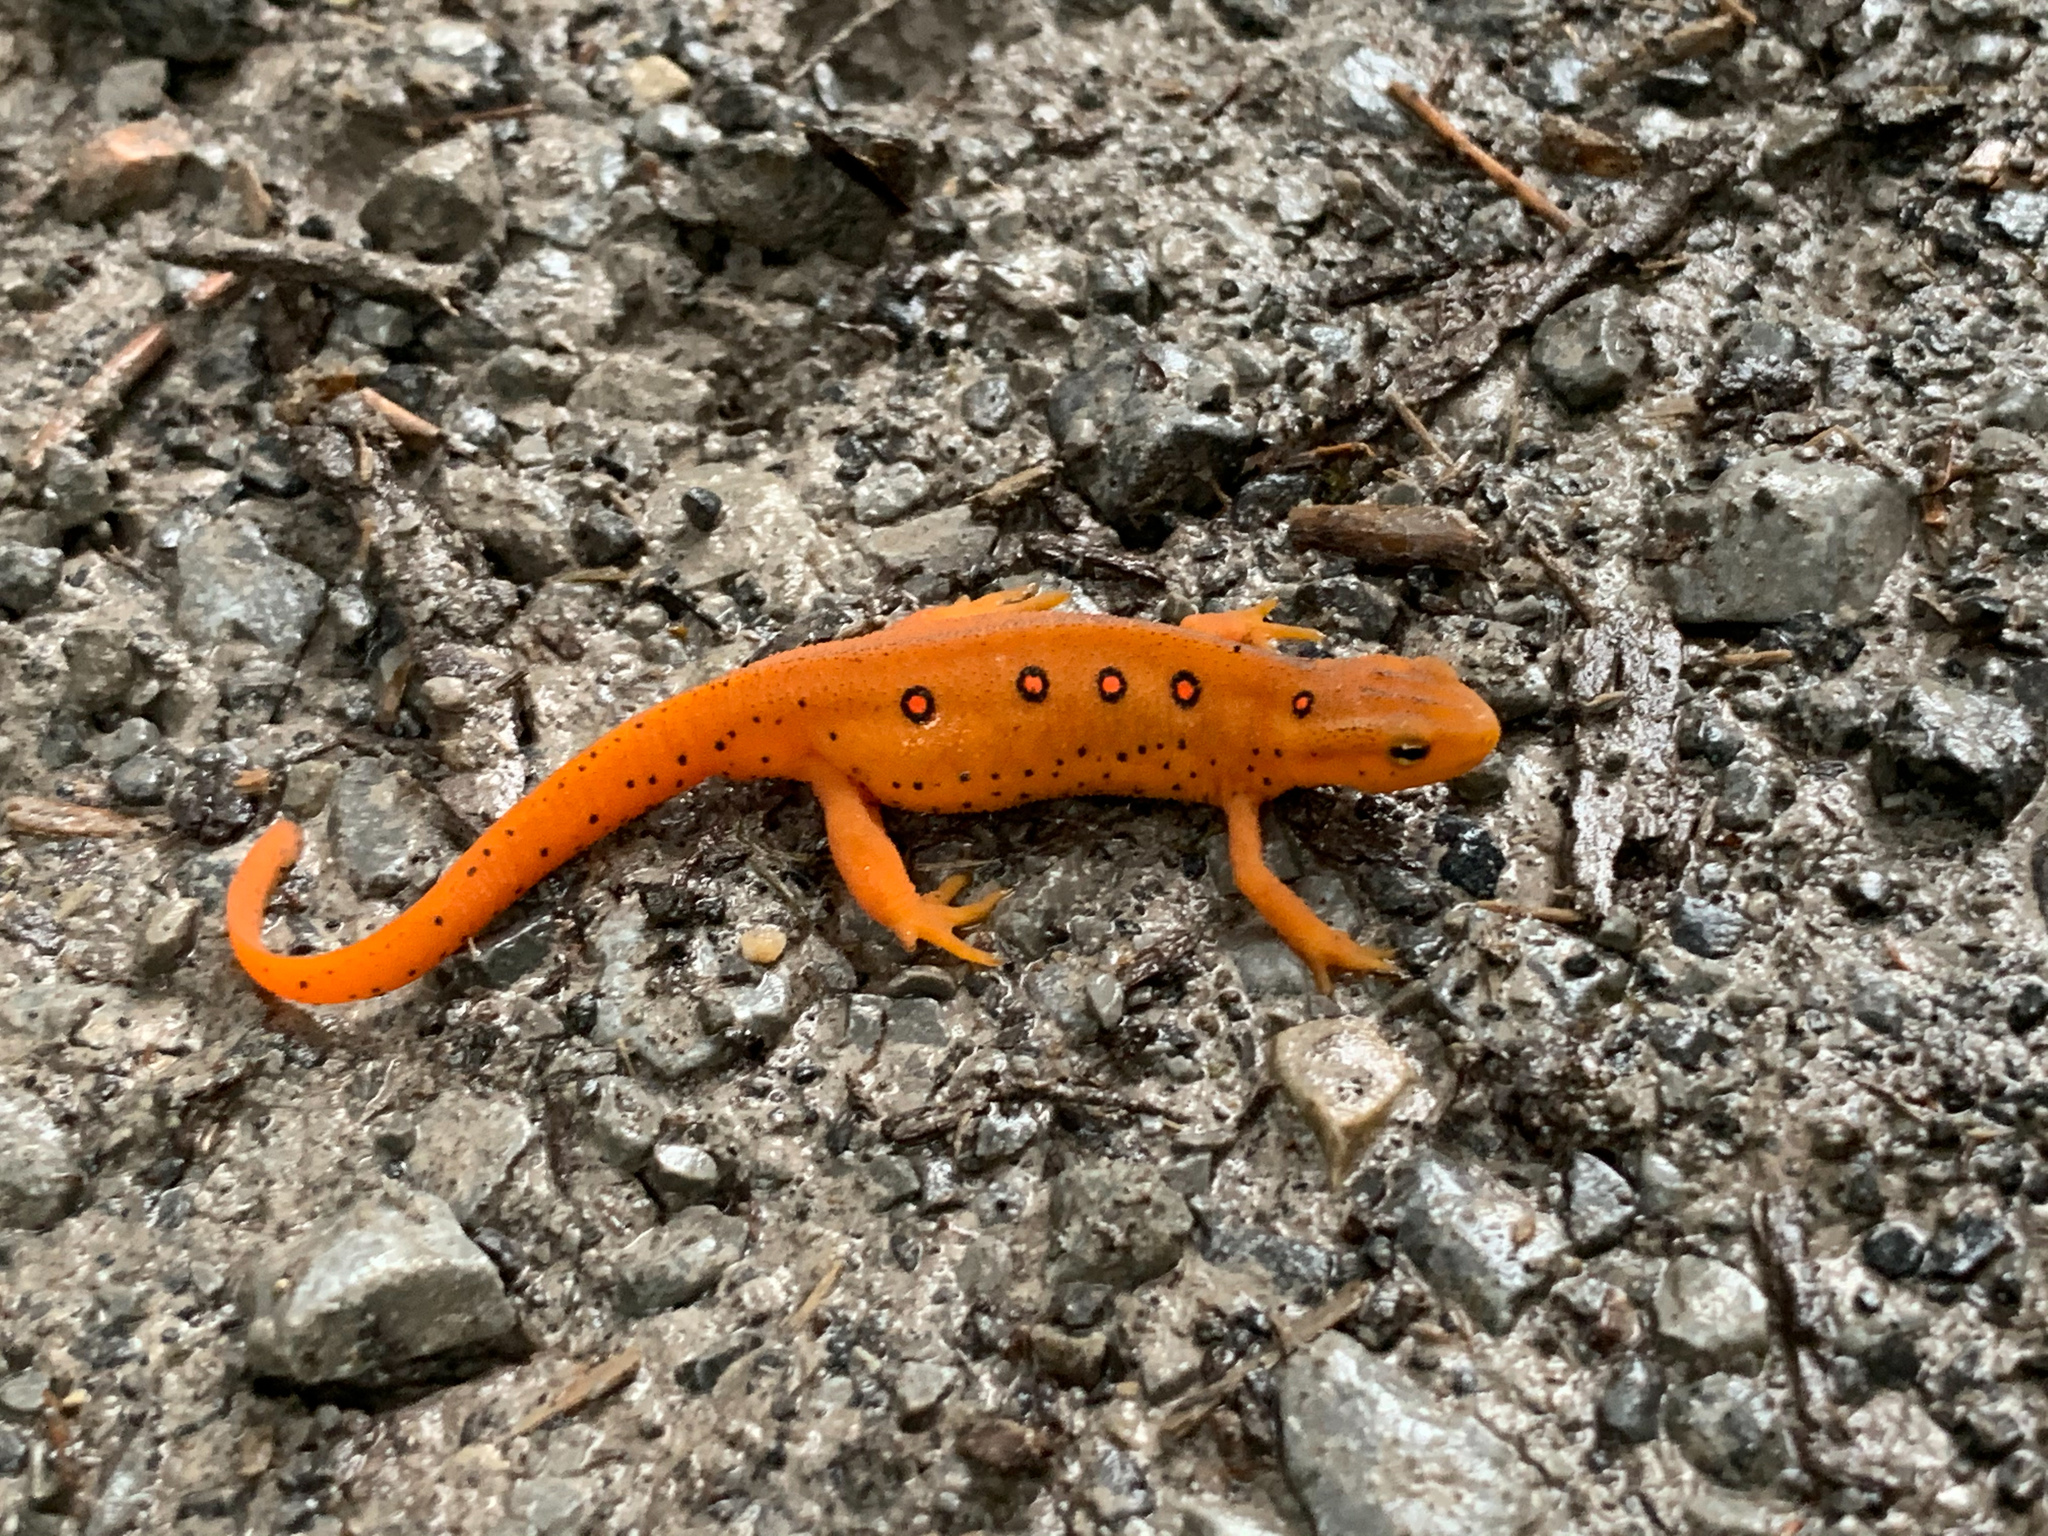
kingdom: Animalia
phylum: Chordata
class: Amphibia
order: Caudata
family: Salamandridae
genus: Notophthalmus
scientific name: Notophthalmus viridescens
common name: Eastern newt
